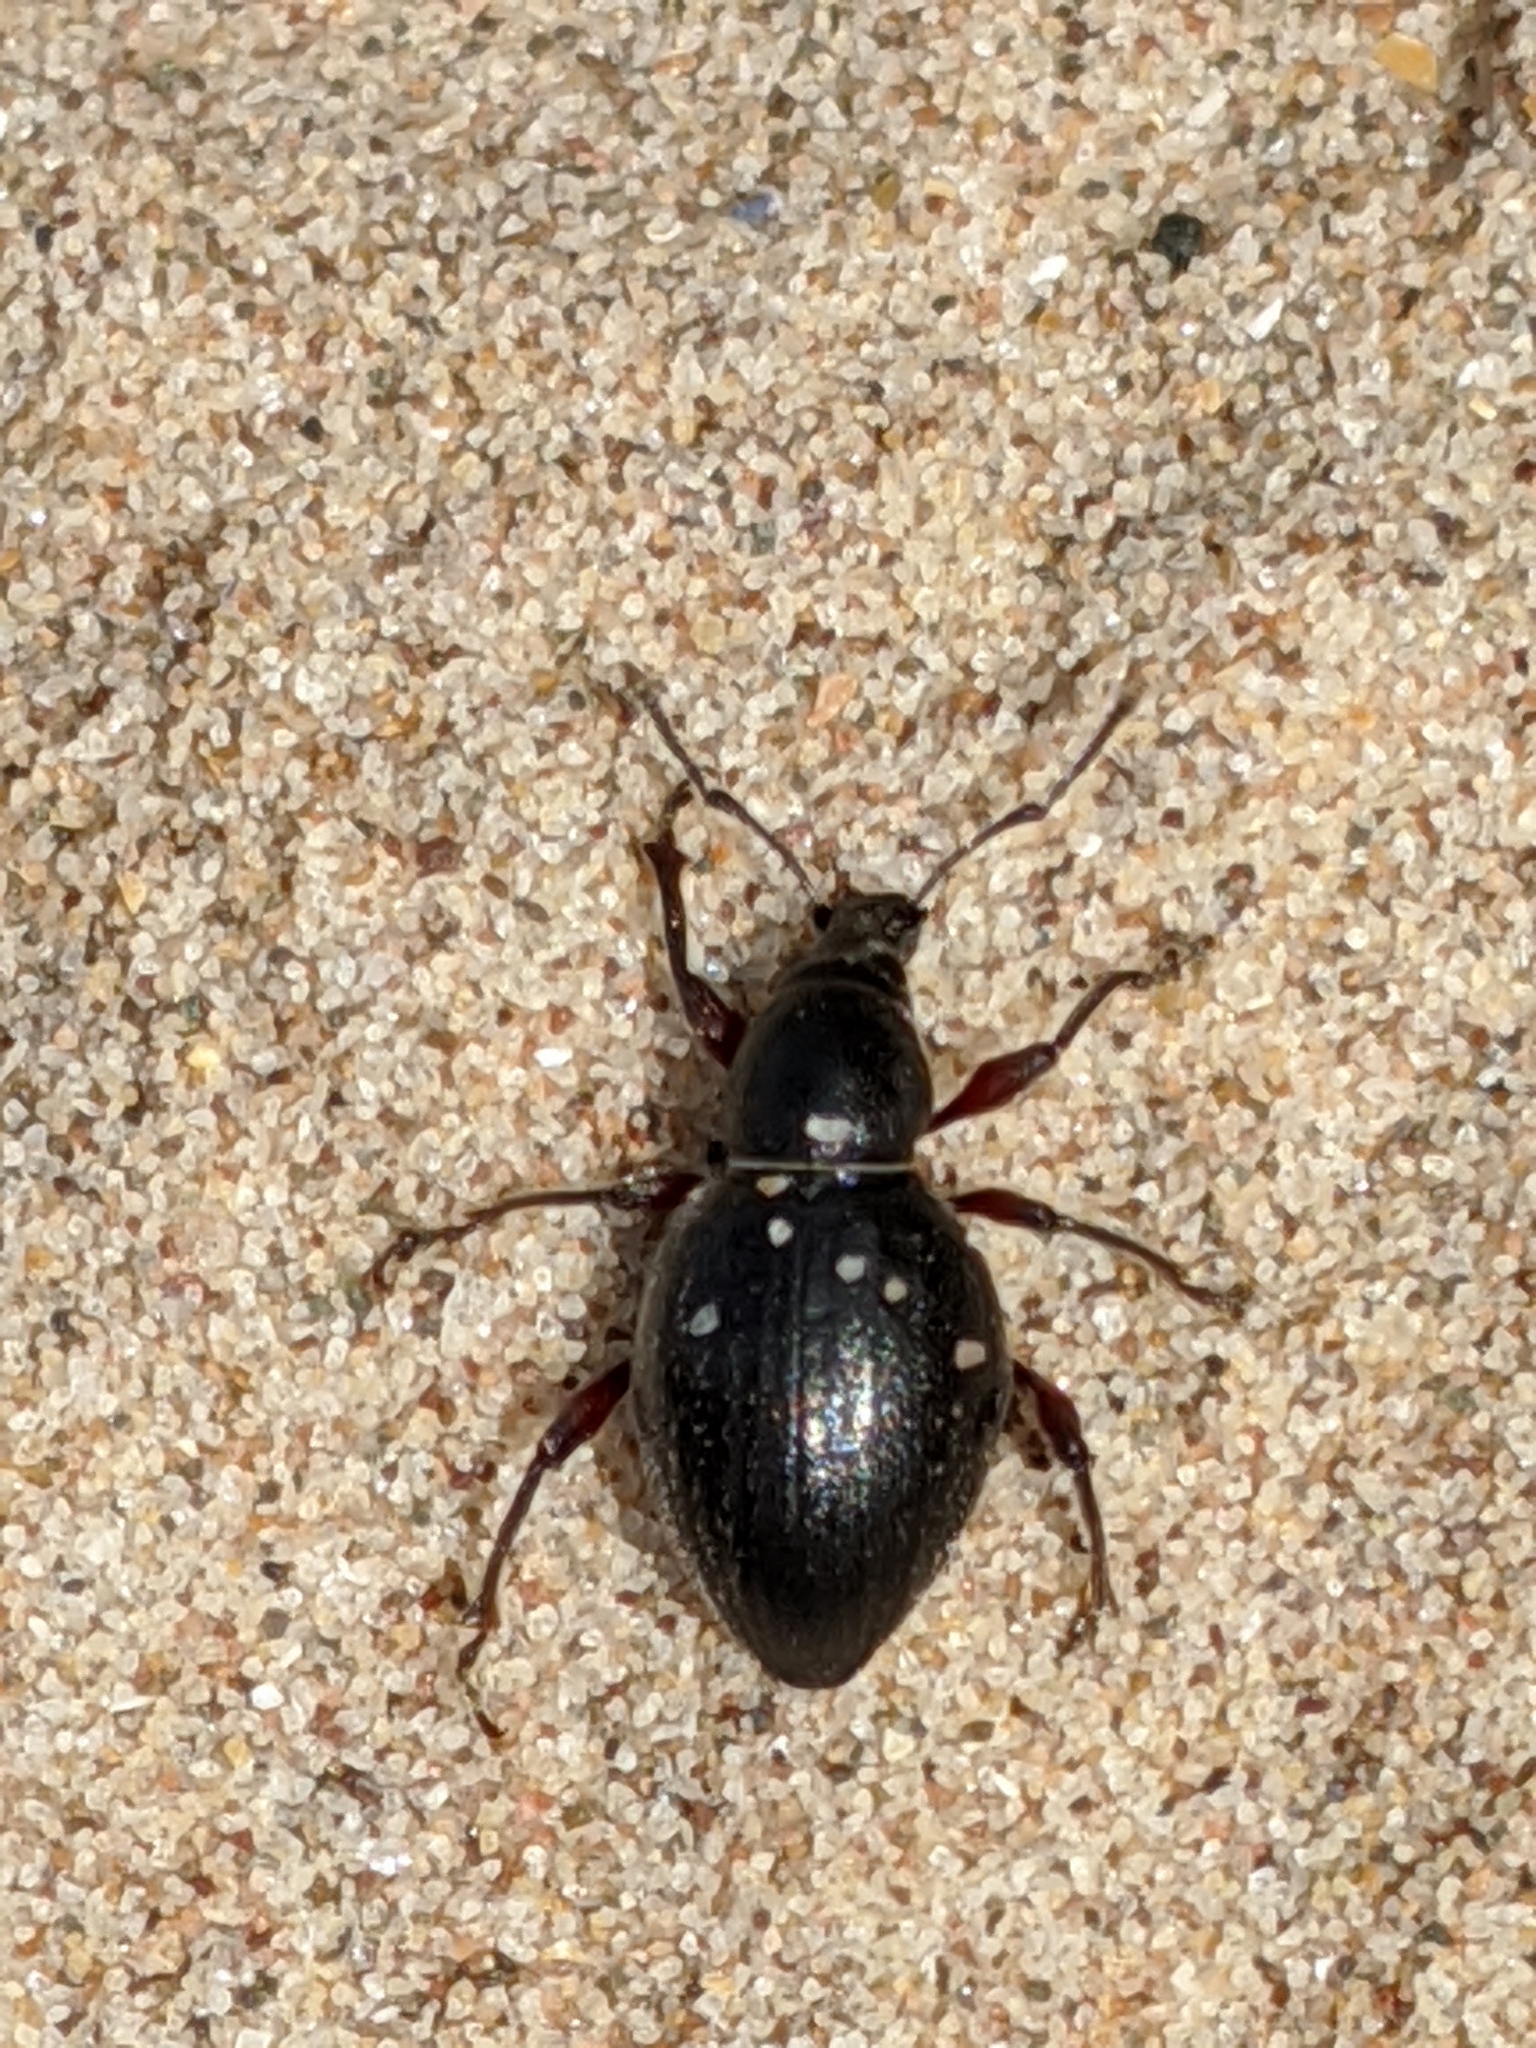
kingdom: Animalia
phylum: Arthropoda
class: Insecta
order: Coleoptera
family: Curculionidae
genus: Otiorhynchus
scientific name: Otiorhynchus atroapterus
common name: Black marram weevil
